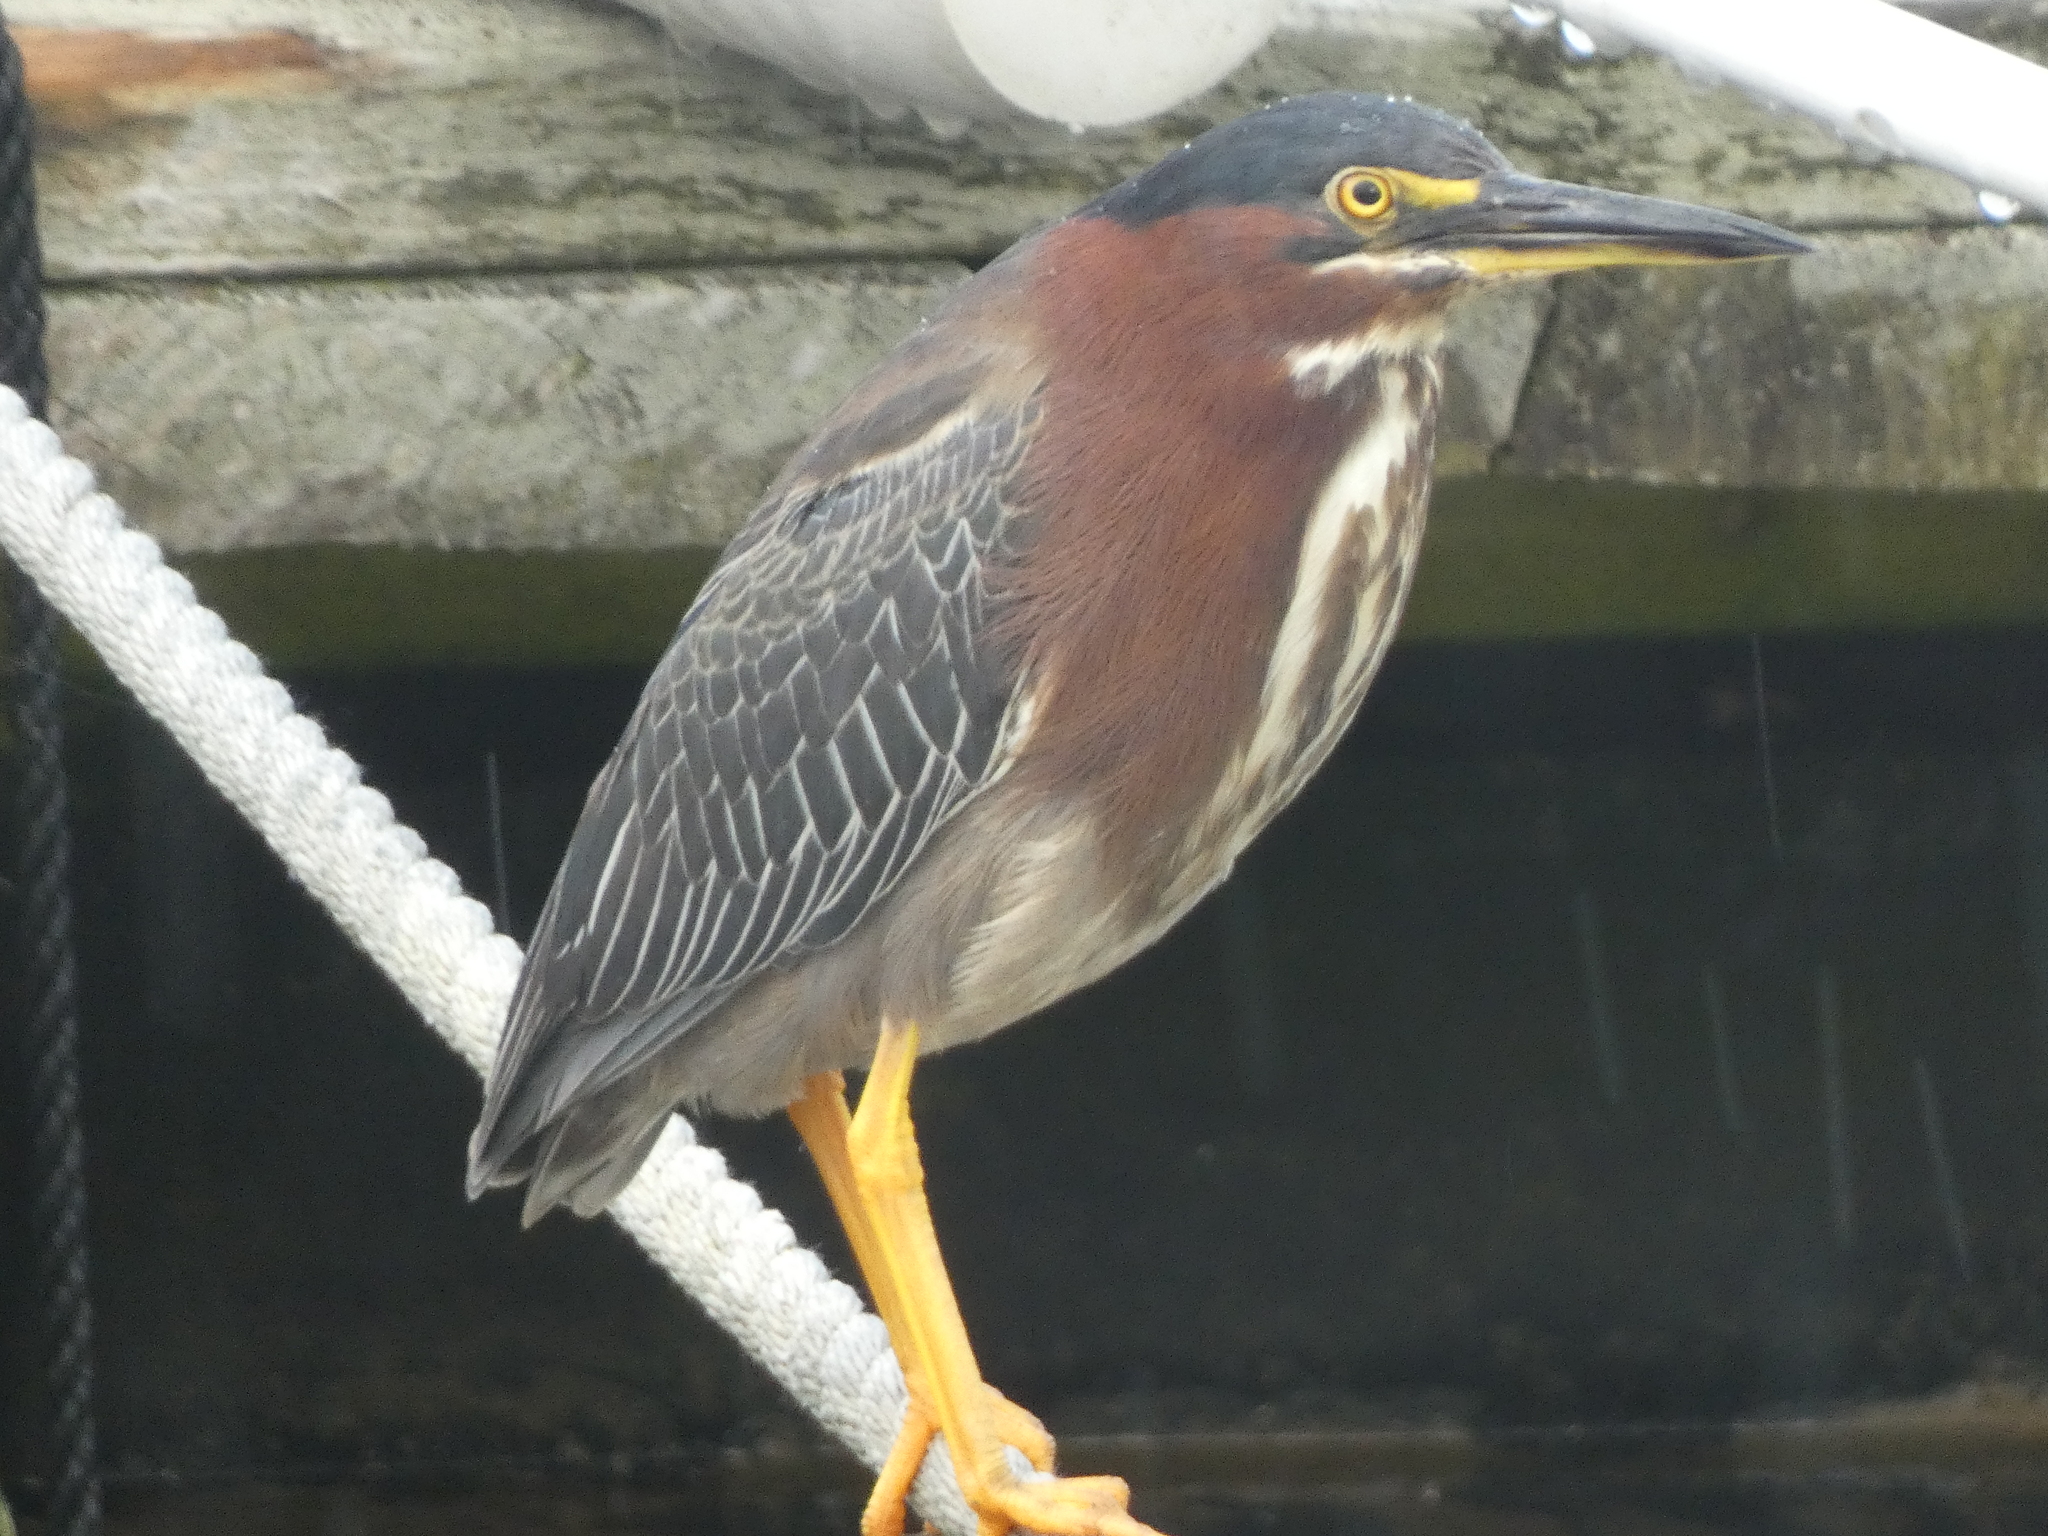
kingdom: Animalia
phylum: Chordata
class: Aves
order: Pelecaniformes
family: Ardeidae
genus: Butorides
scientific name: Butorides virescens
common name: Green heron
